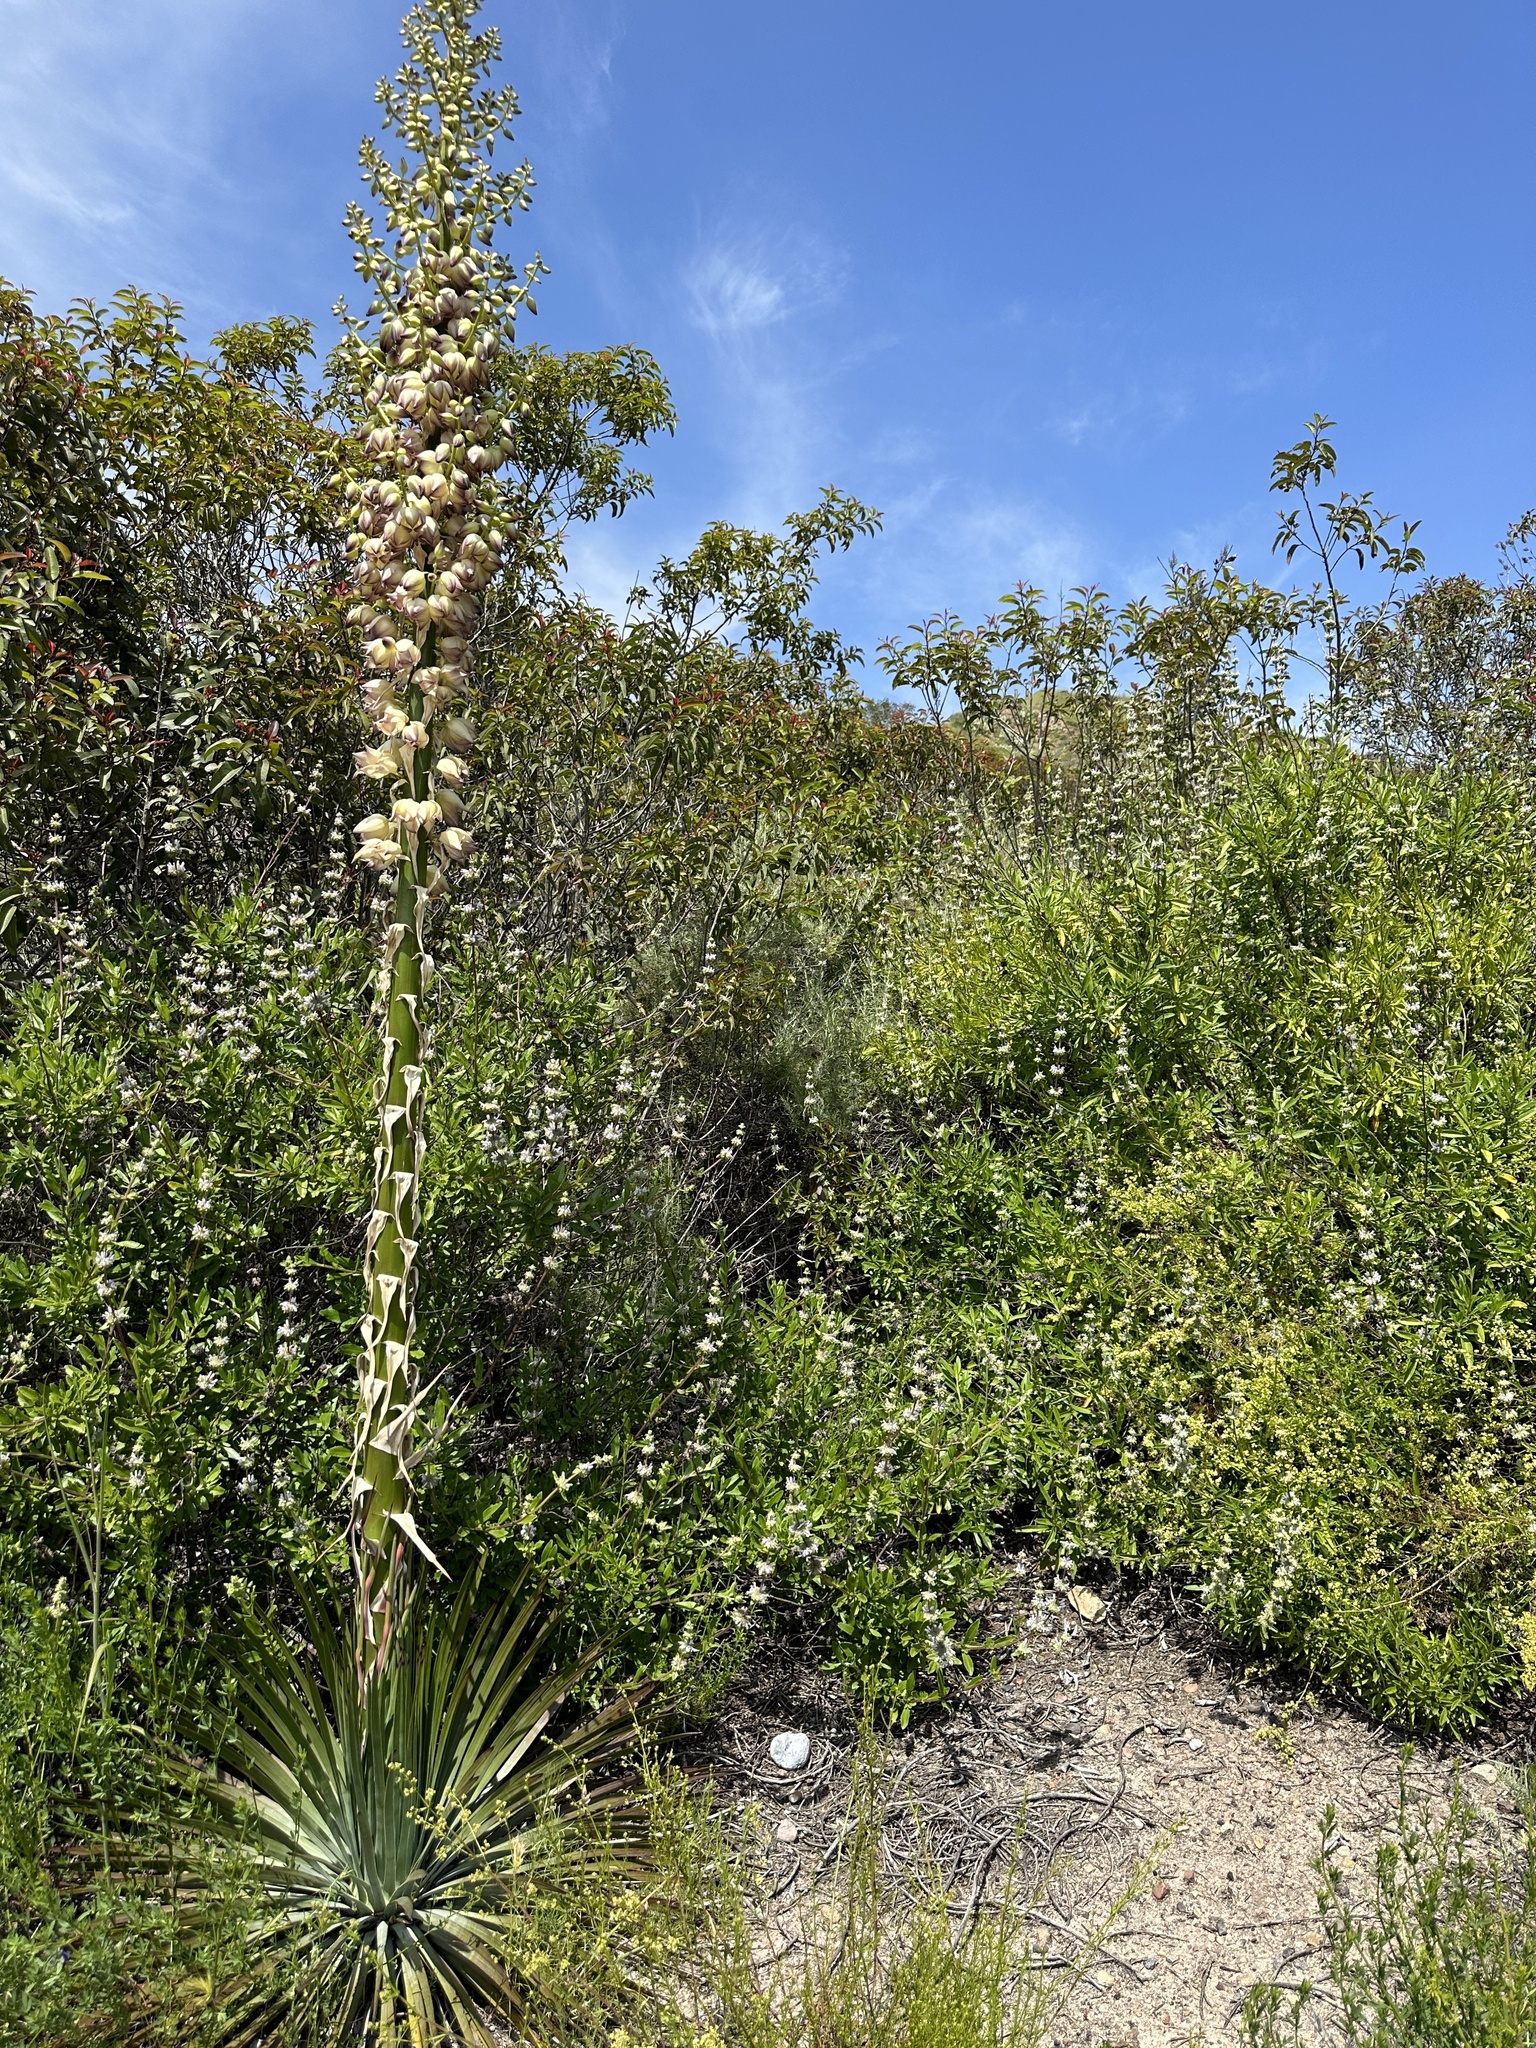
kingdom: Plantae
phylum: Tracheophyta
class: Liliopsida
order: Asparagales
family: Asparagaceae
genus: Hesperoyucca
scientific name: Hesperoyucca whipplei
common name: Our lord's-candle
